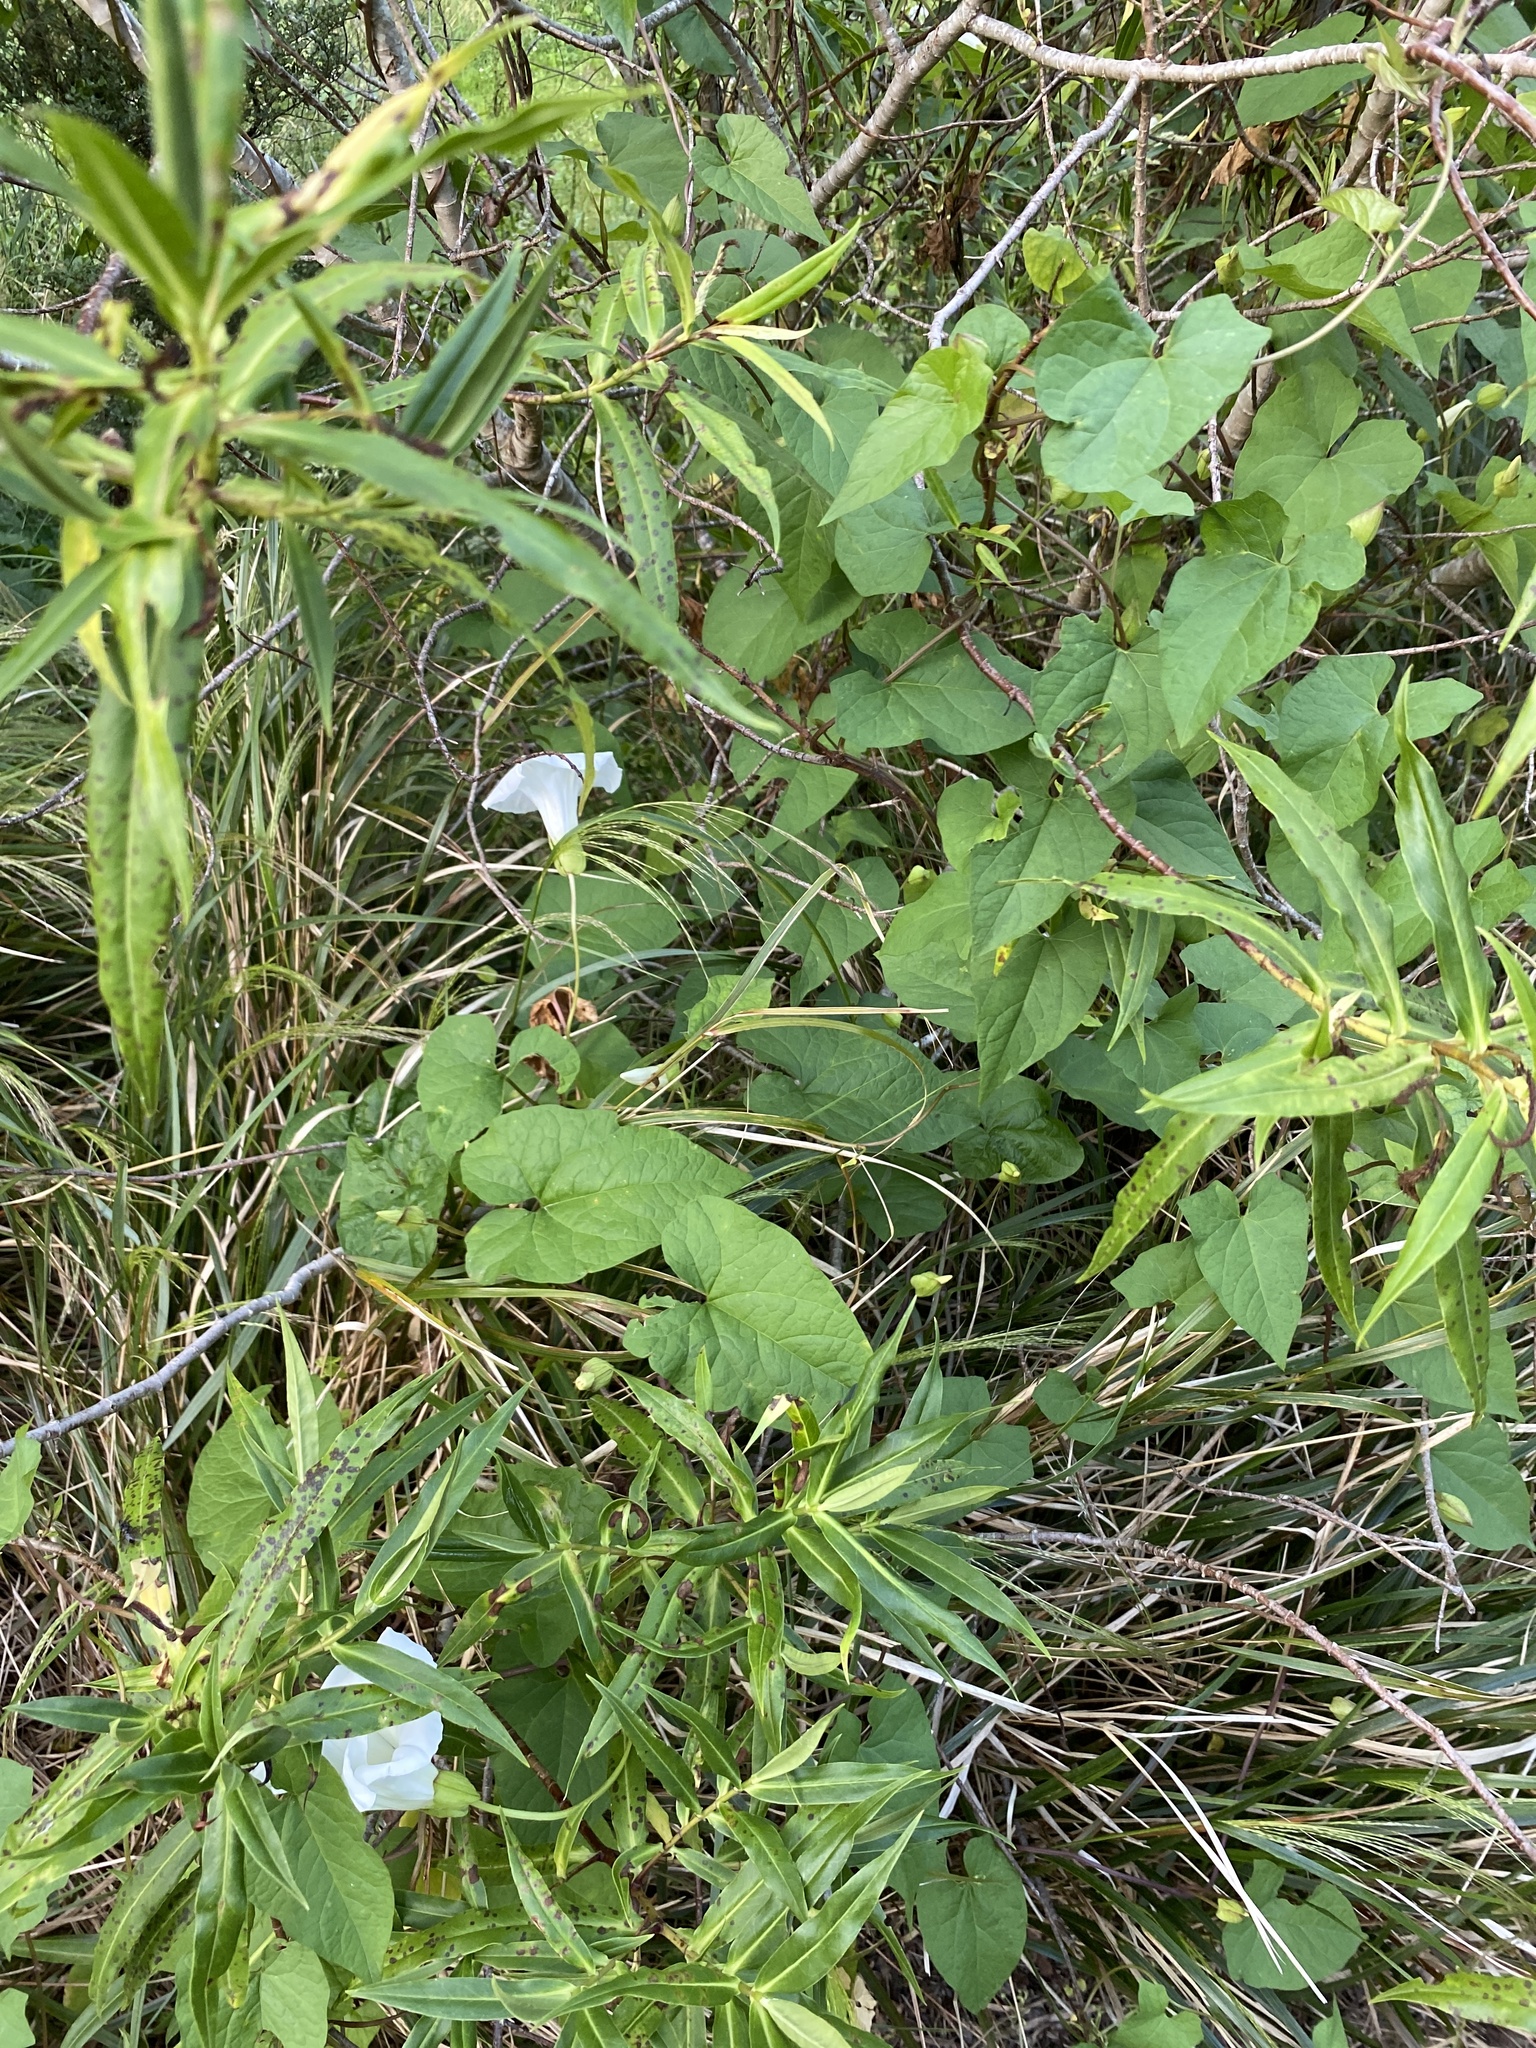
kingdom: Plantae
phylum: Tracheophyta
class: Magnoliopsida
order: Solanales
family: Convolvulaceae
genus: Calystegia
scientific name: Calystegia silvatica
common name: Large bindweed
